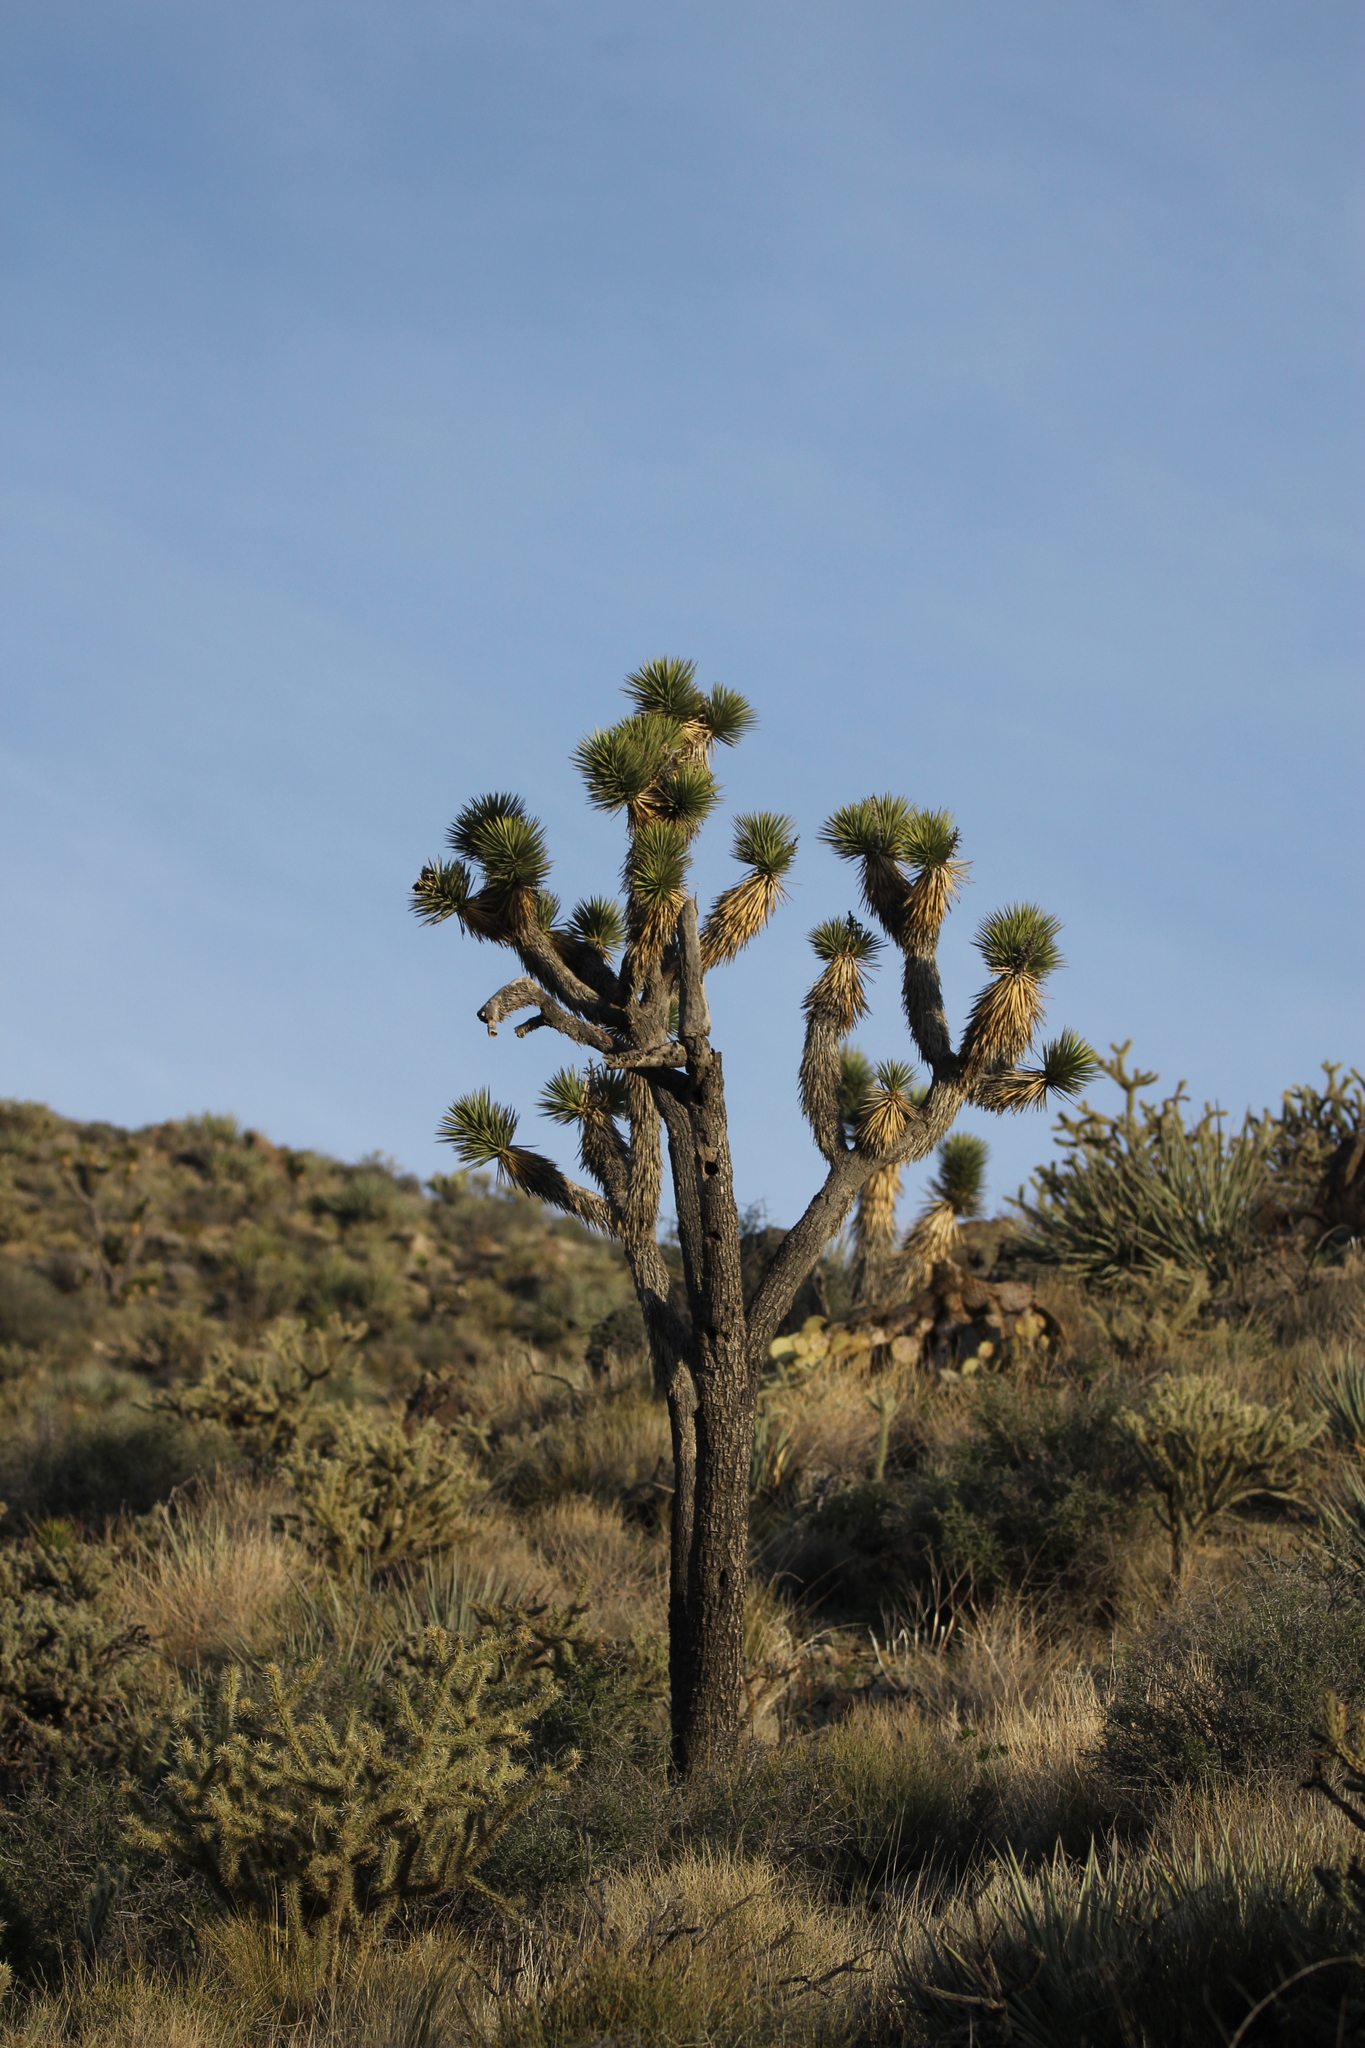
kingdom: Plantae
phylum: Tracheophyta
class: Liliopsida
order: Asparagales
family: Asparagaceae
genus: Yucca
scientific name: Yucca brevifolia
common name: Joshua tree
